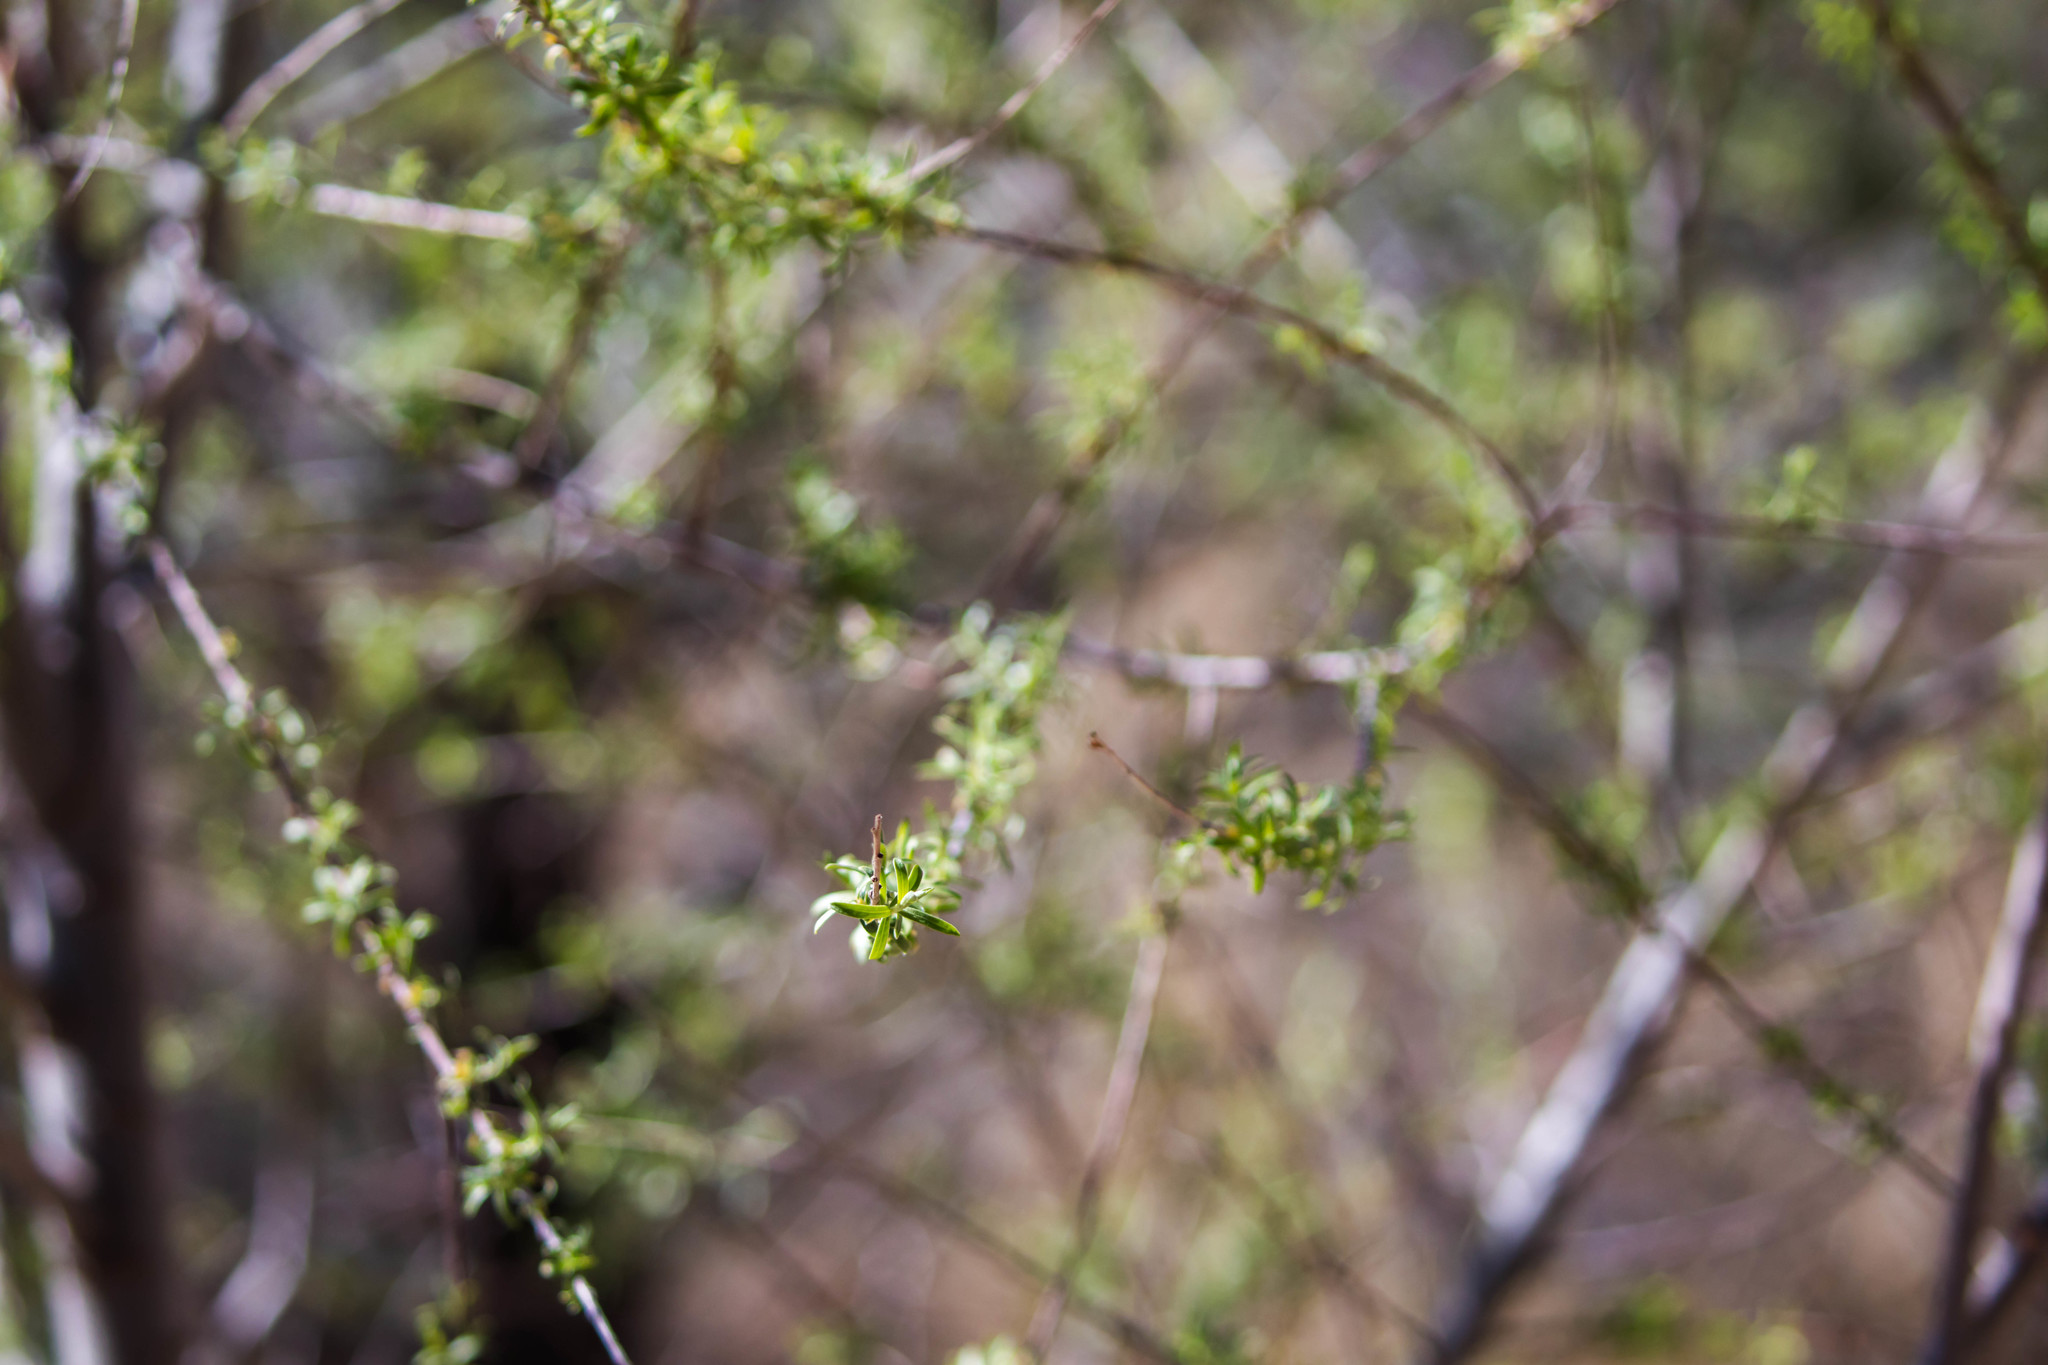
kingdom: Plantae
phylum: Tracheophyta
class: Magnoliopsida
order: Malpighiales
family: Salicaceae
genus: Salix
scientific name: Salix taxifolia
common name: Yew-leaf willow
